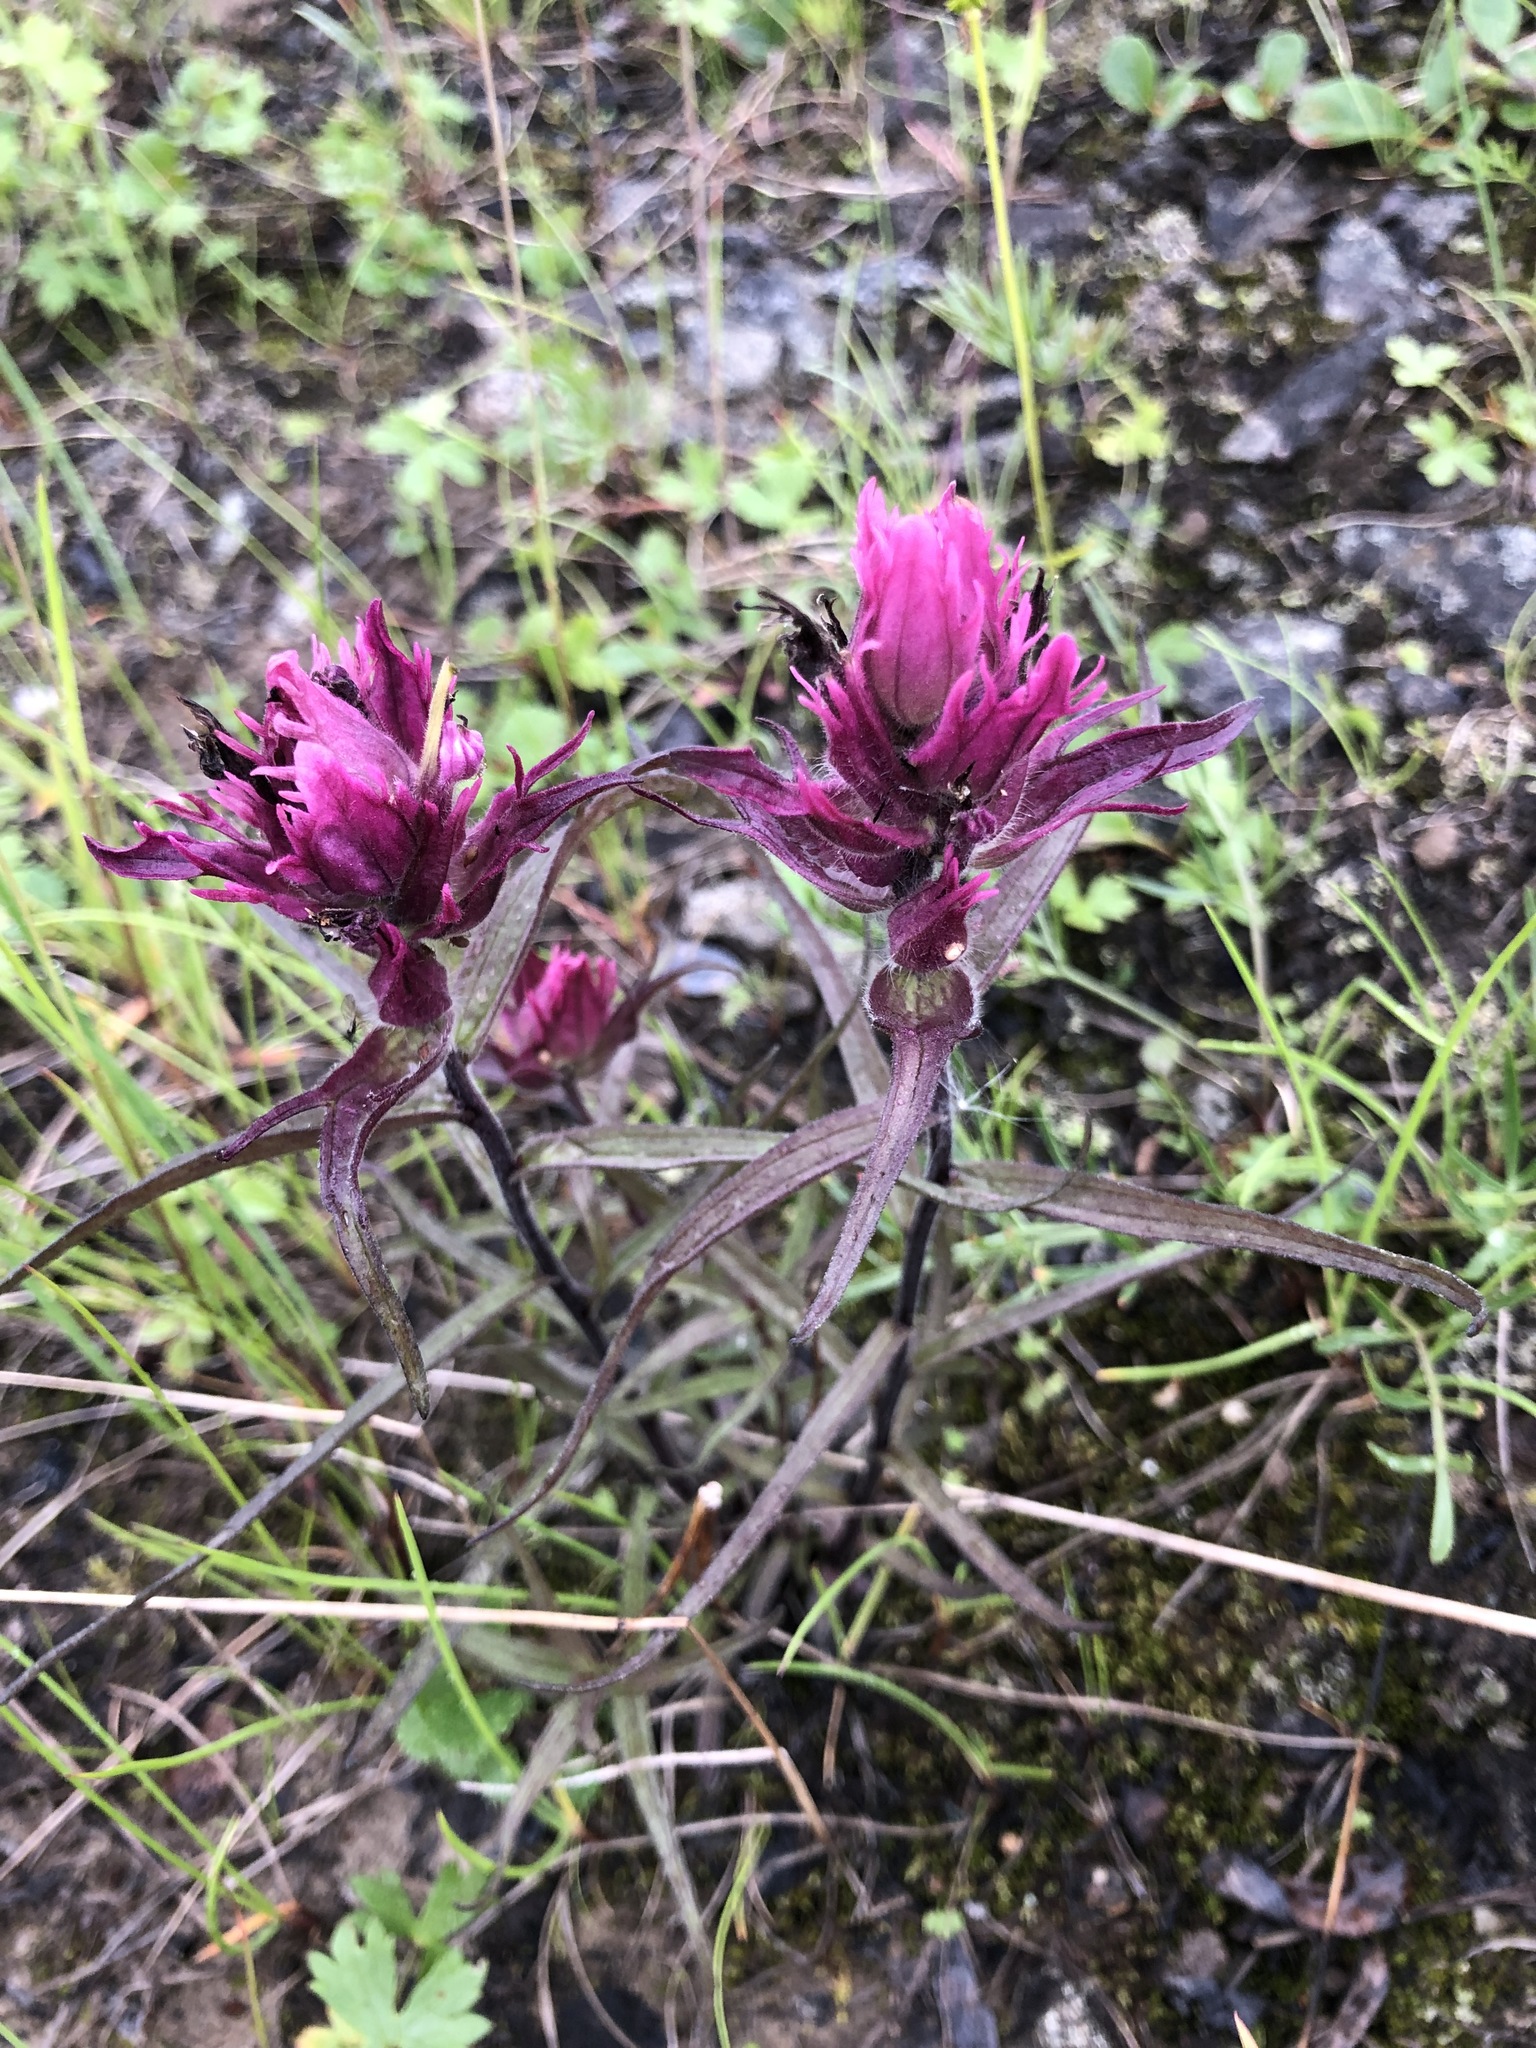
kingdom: Plantae
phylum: Tracheophyta
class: Magnoliopsida
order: Lamiales
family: Orobanchaceae
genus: Castilleja
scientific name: Castilleja arctica
